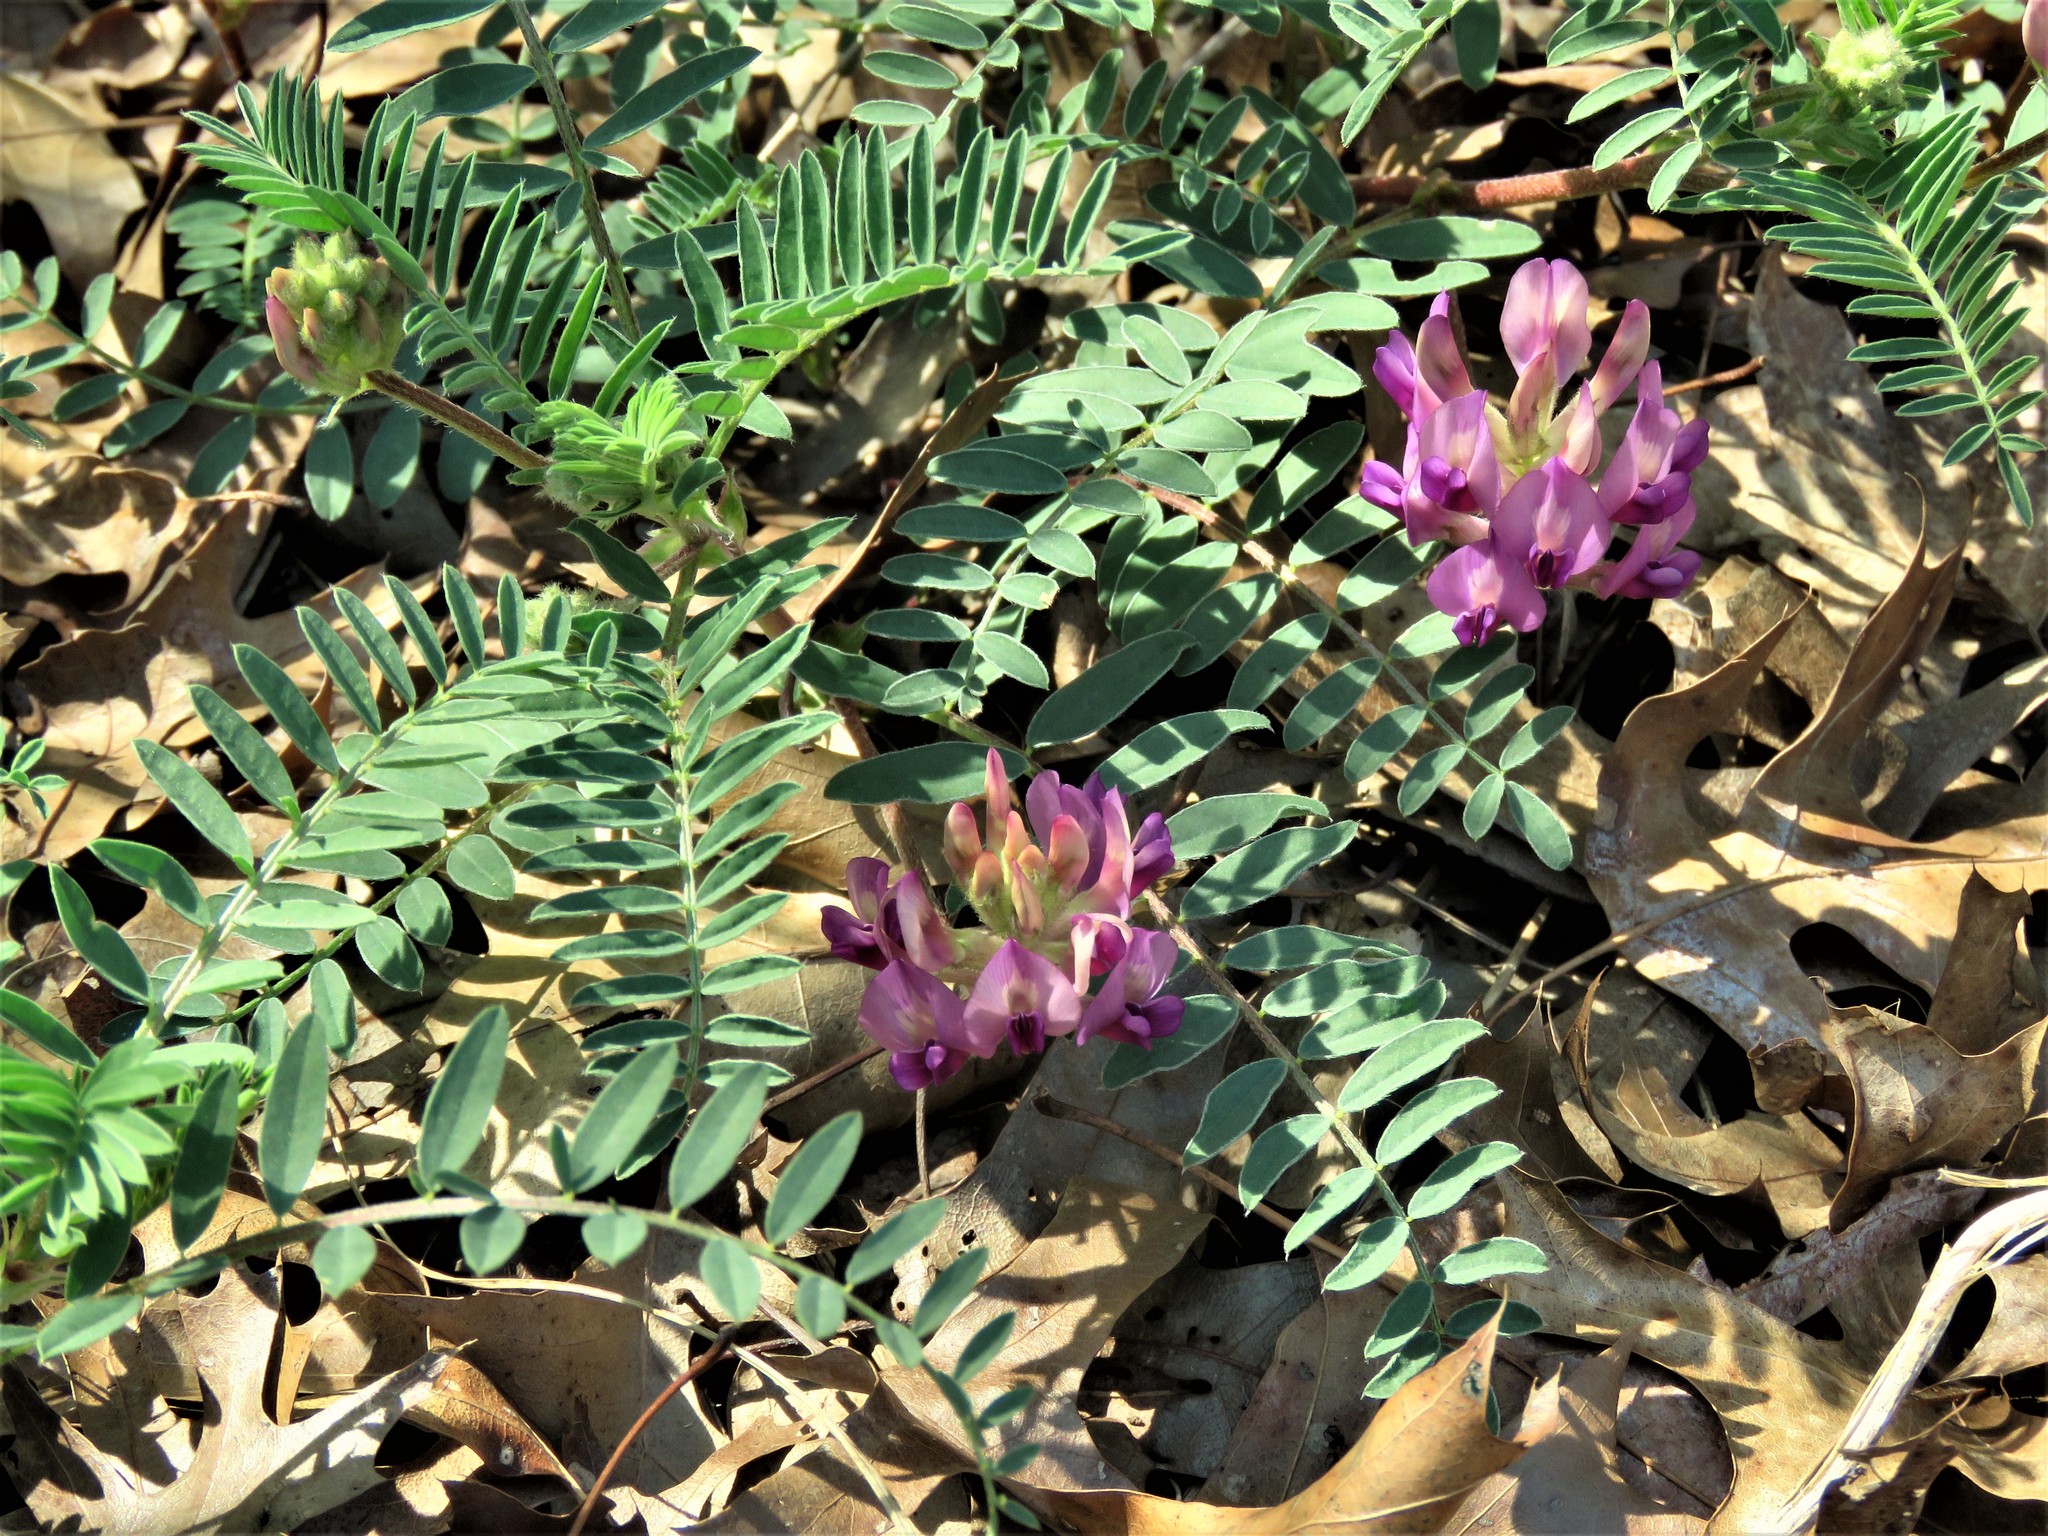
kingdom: Plantae
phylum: Tracheophyta
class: Magnoliopsida
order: Fabales
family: Fabaceae
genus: Astragalus
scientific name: Astragalus crassicarpus
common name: Ground-plum milk-vetch
